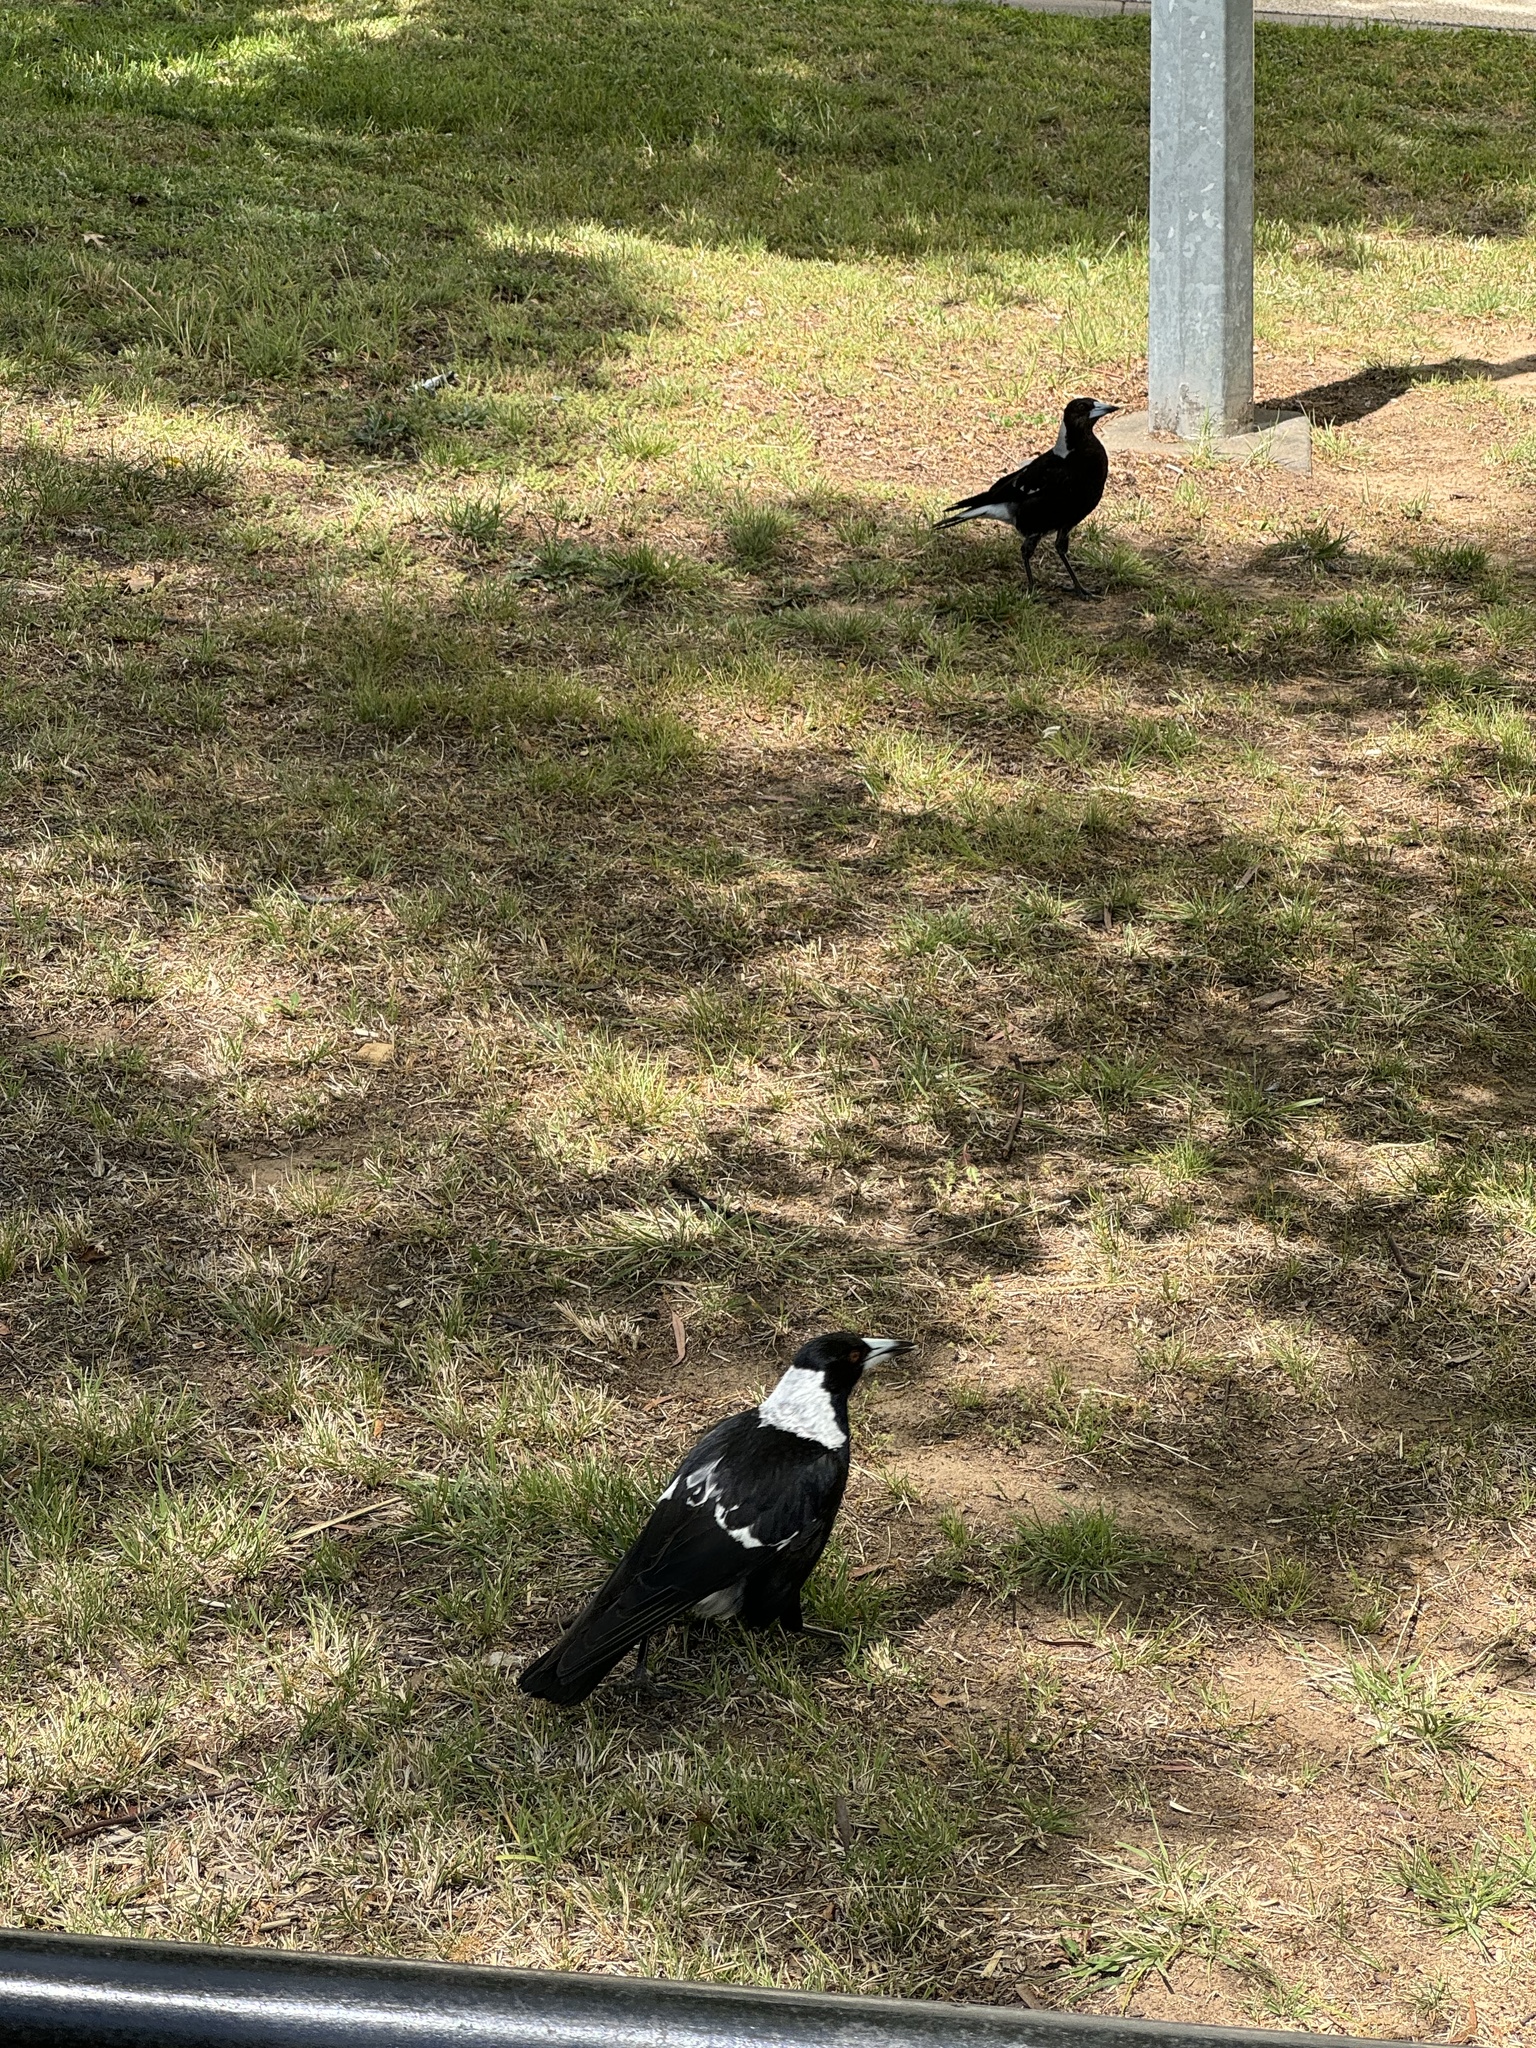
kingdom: Animalia
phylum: Chordata
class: Aves
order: Passeriformes
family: Cracticidae
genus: Gymnorhina
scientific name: Gymnorhina tibicen
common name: Australian magpie
